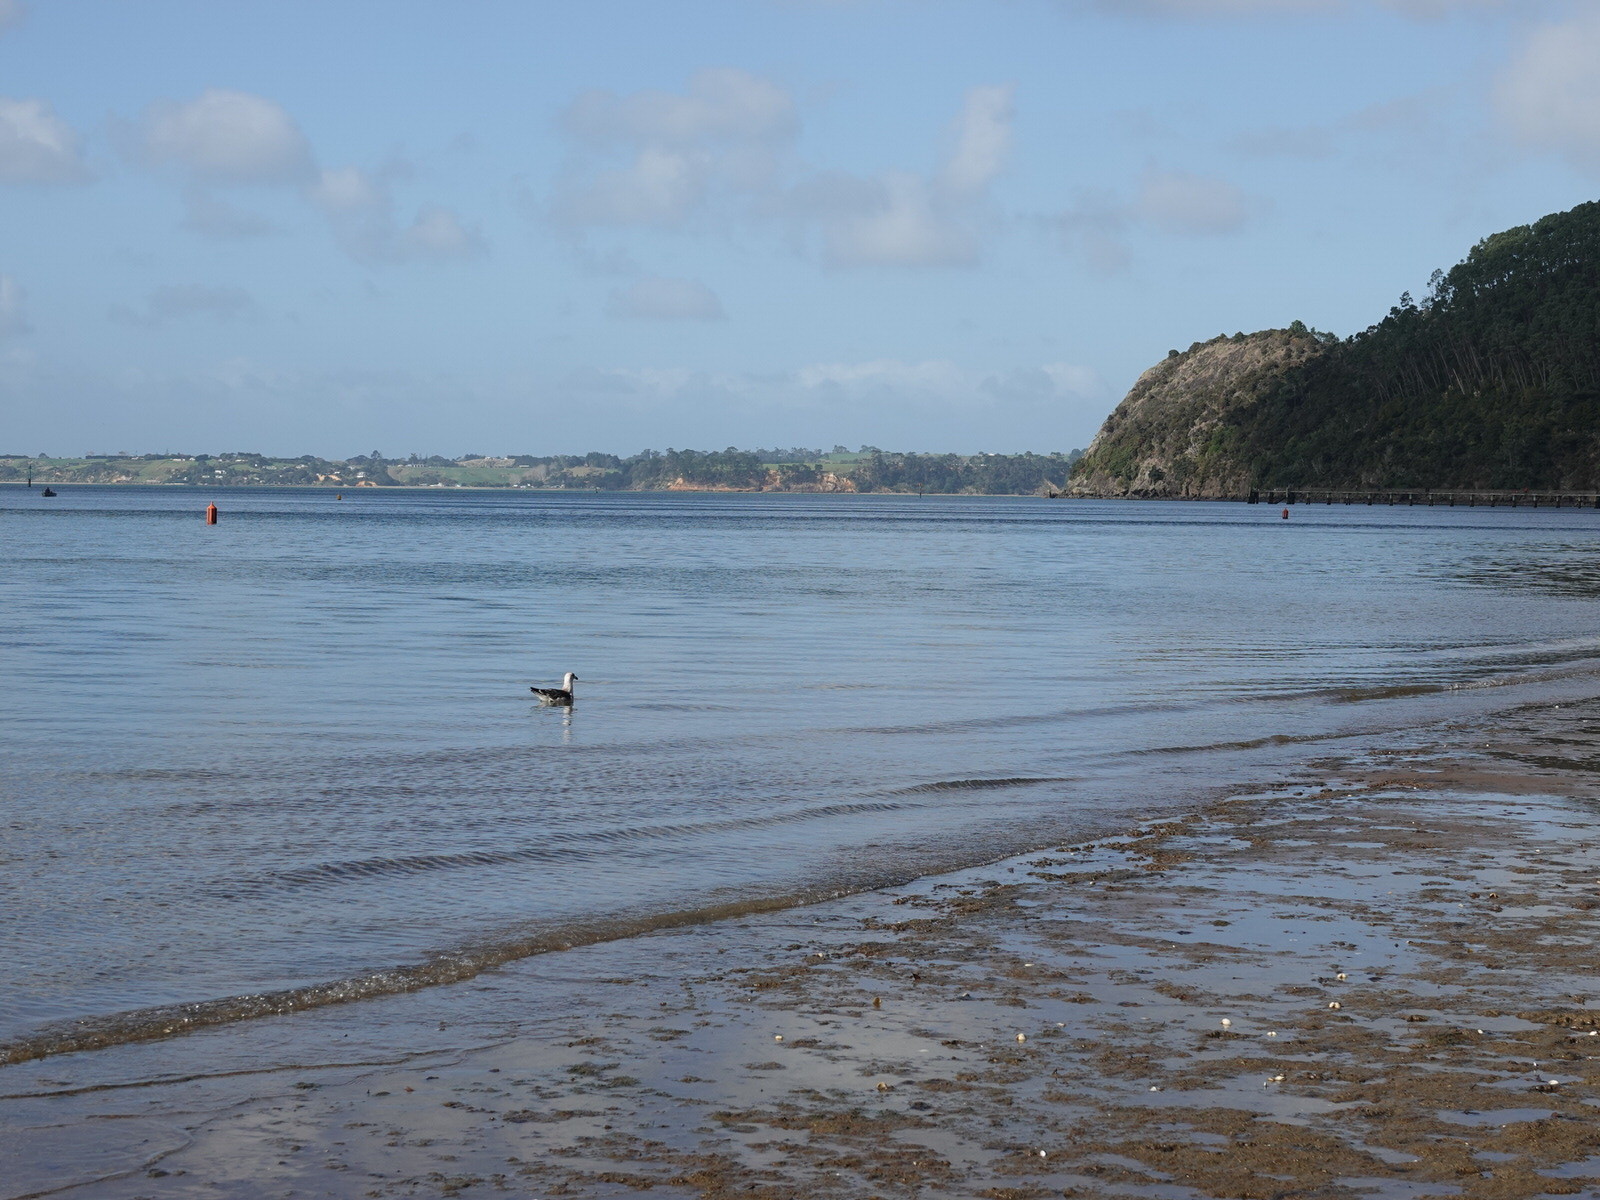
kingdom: Animalia
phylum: Chordata
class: Aves
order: Charadriiformes
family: Laridae
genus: Larus
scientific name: Larus dominicanus
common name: Kelp gull
